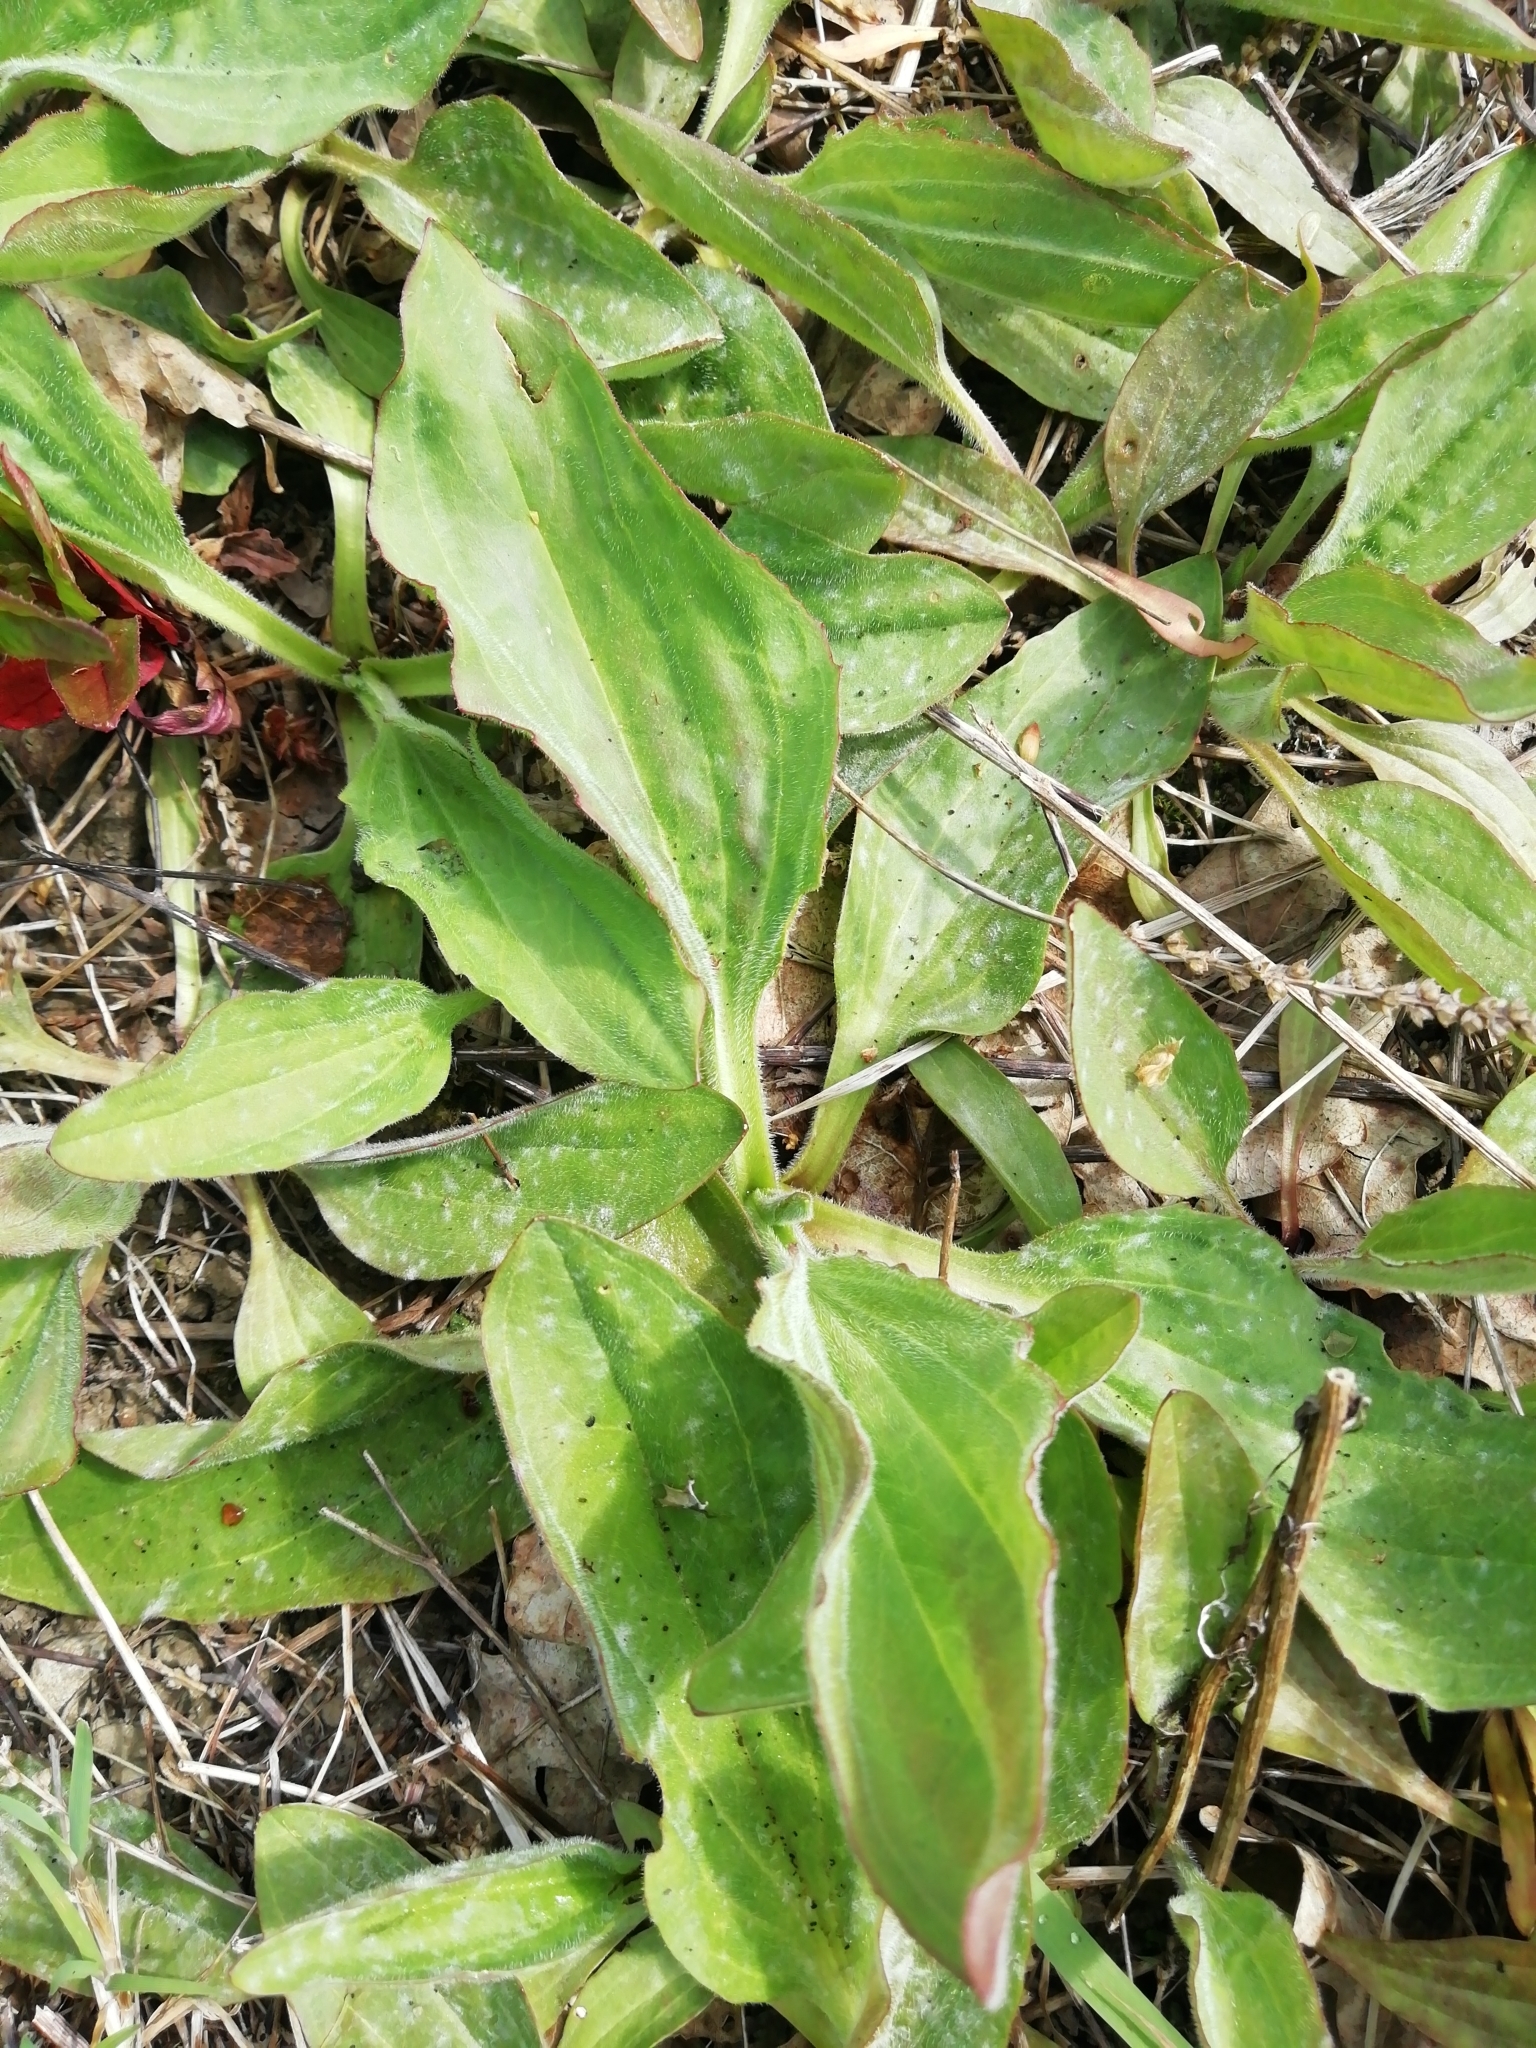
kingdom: Plantae
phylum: Tracheophyta
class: Magnoliopsida
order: Lamiales
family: Plantaginaceae
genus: Plantago
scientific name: Plantago major
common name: Common plantain
